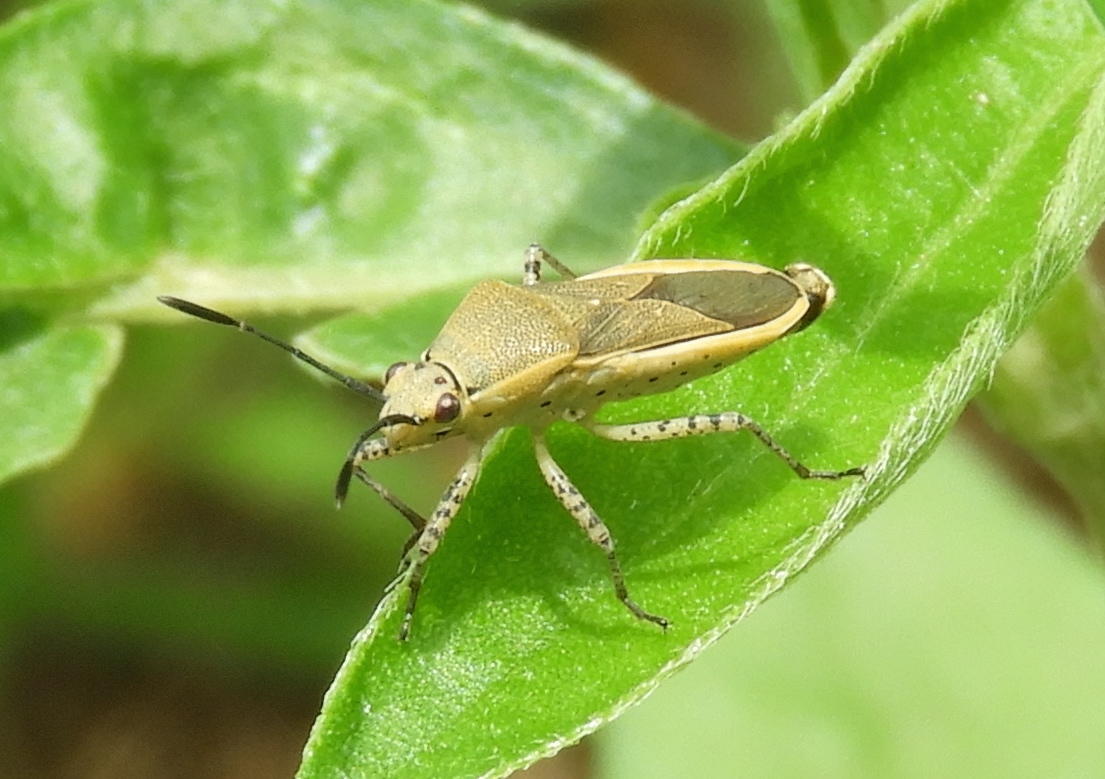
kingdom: Animalia
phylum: Arthropoda
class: Insecta
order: Hemiptera
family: Coreidae
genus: Catorhintha
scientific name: Catorhintha selector
